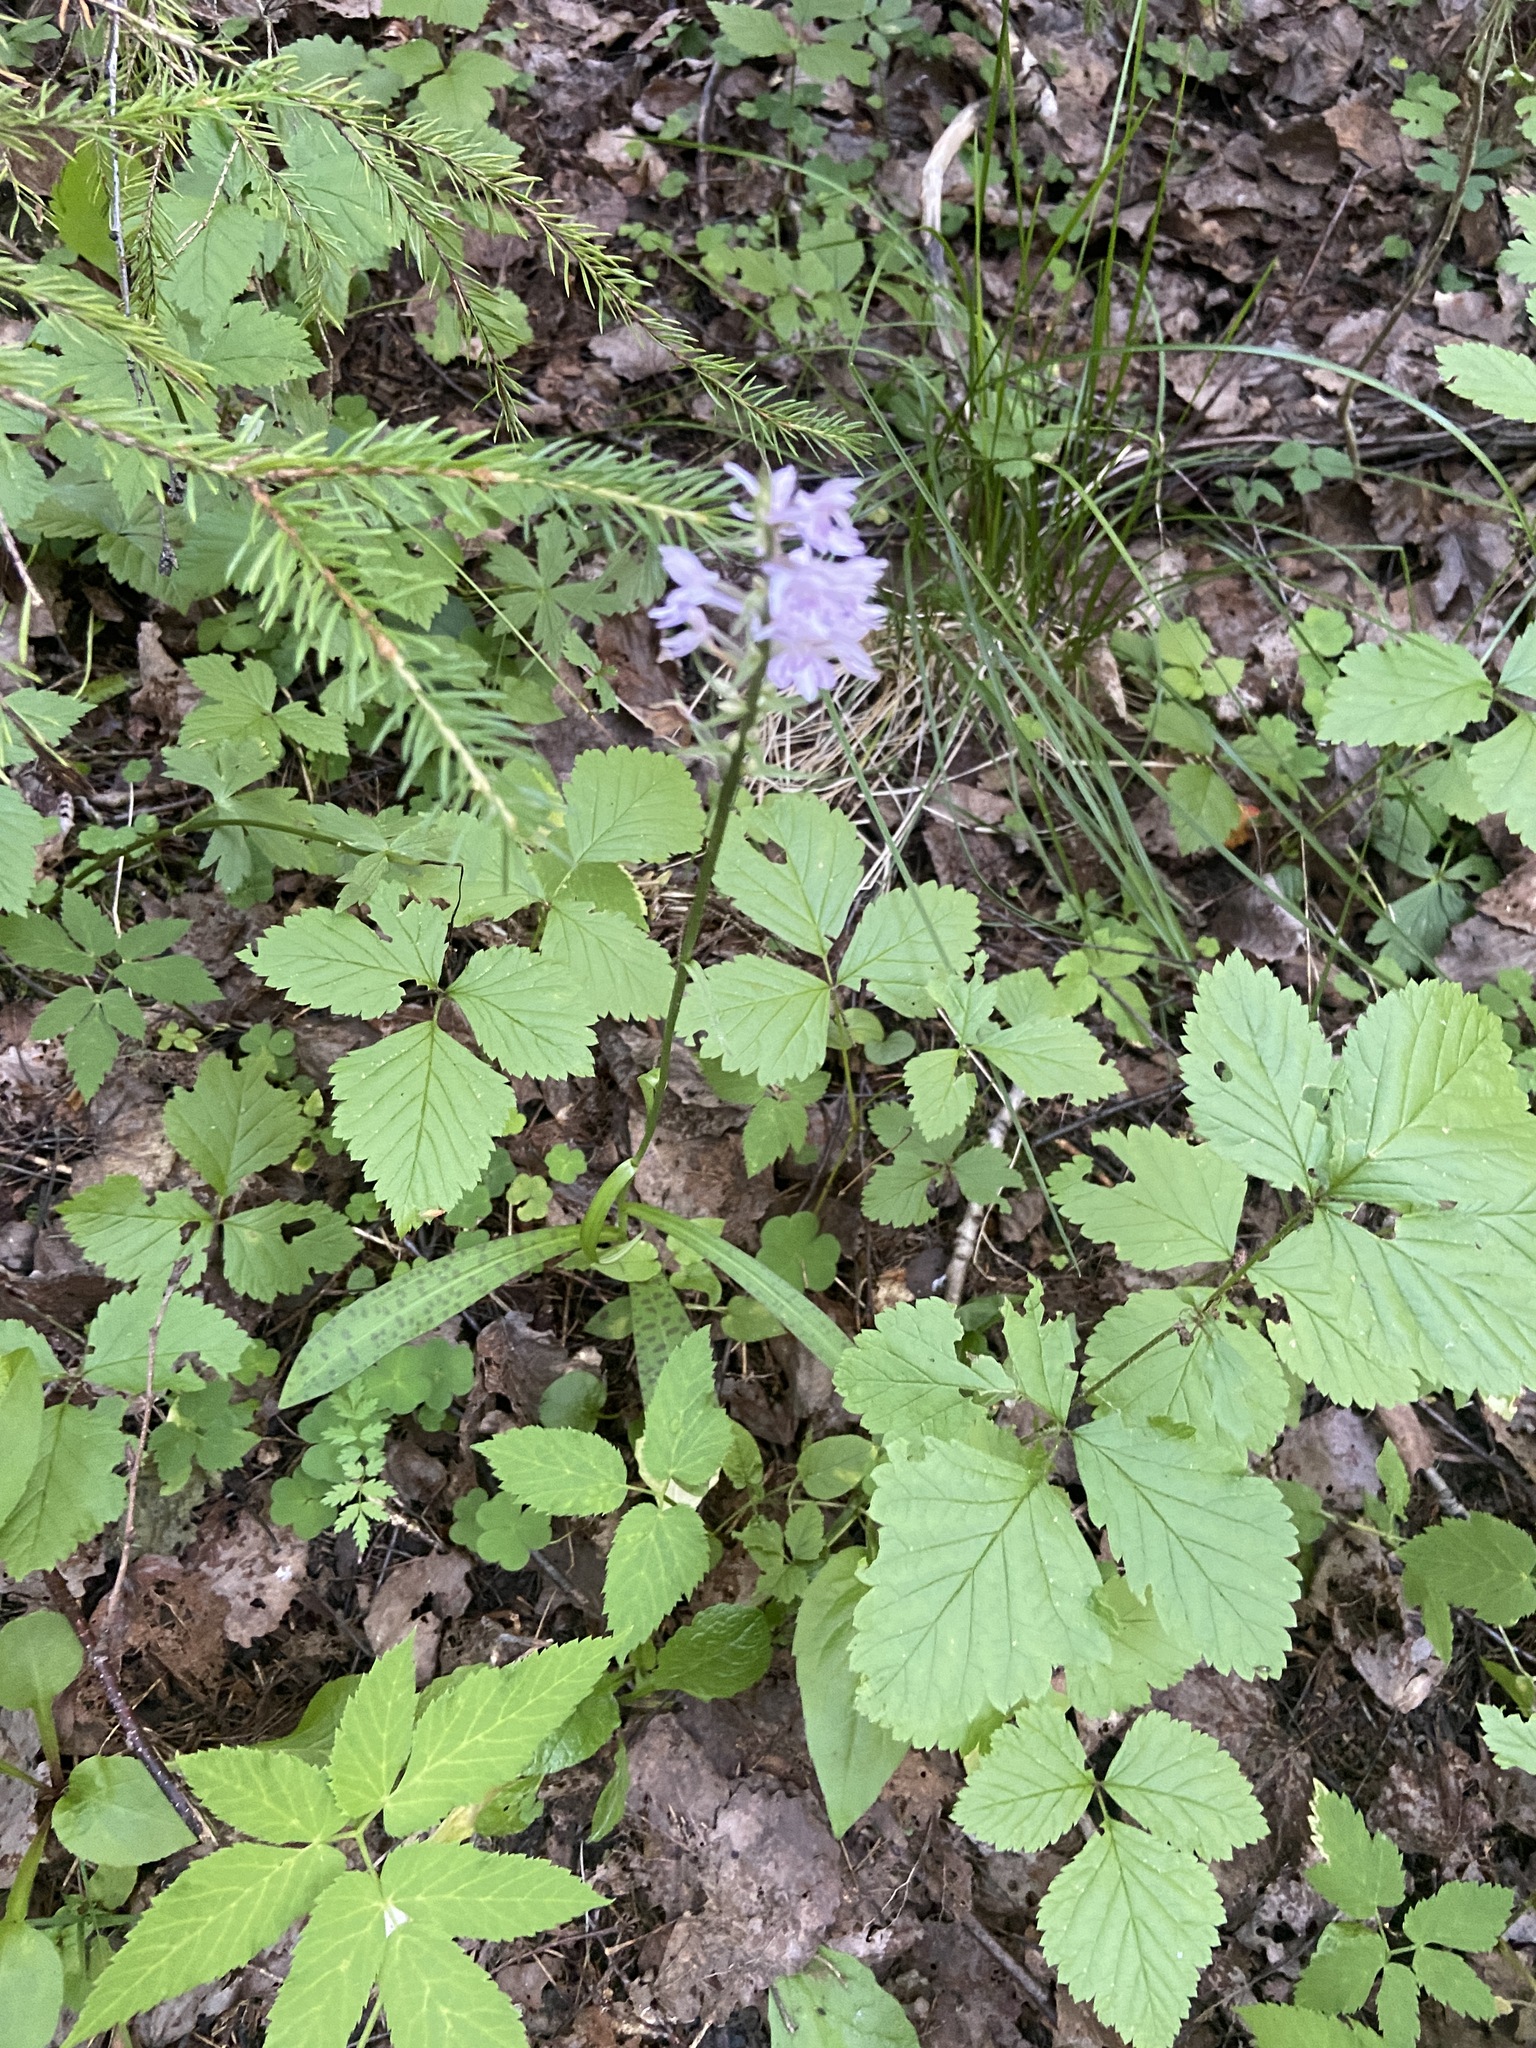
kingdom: Plantae
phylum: Tracheophyta
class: Liliopsida
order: Asparagales
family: Orchidaceae
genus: Dactylorhiza
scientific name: Dactylorhiza maculata
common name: Heath spotted-orchid
